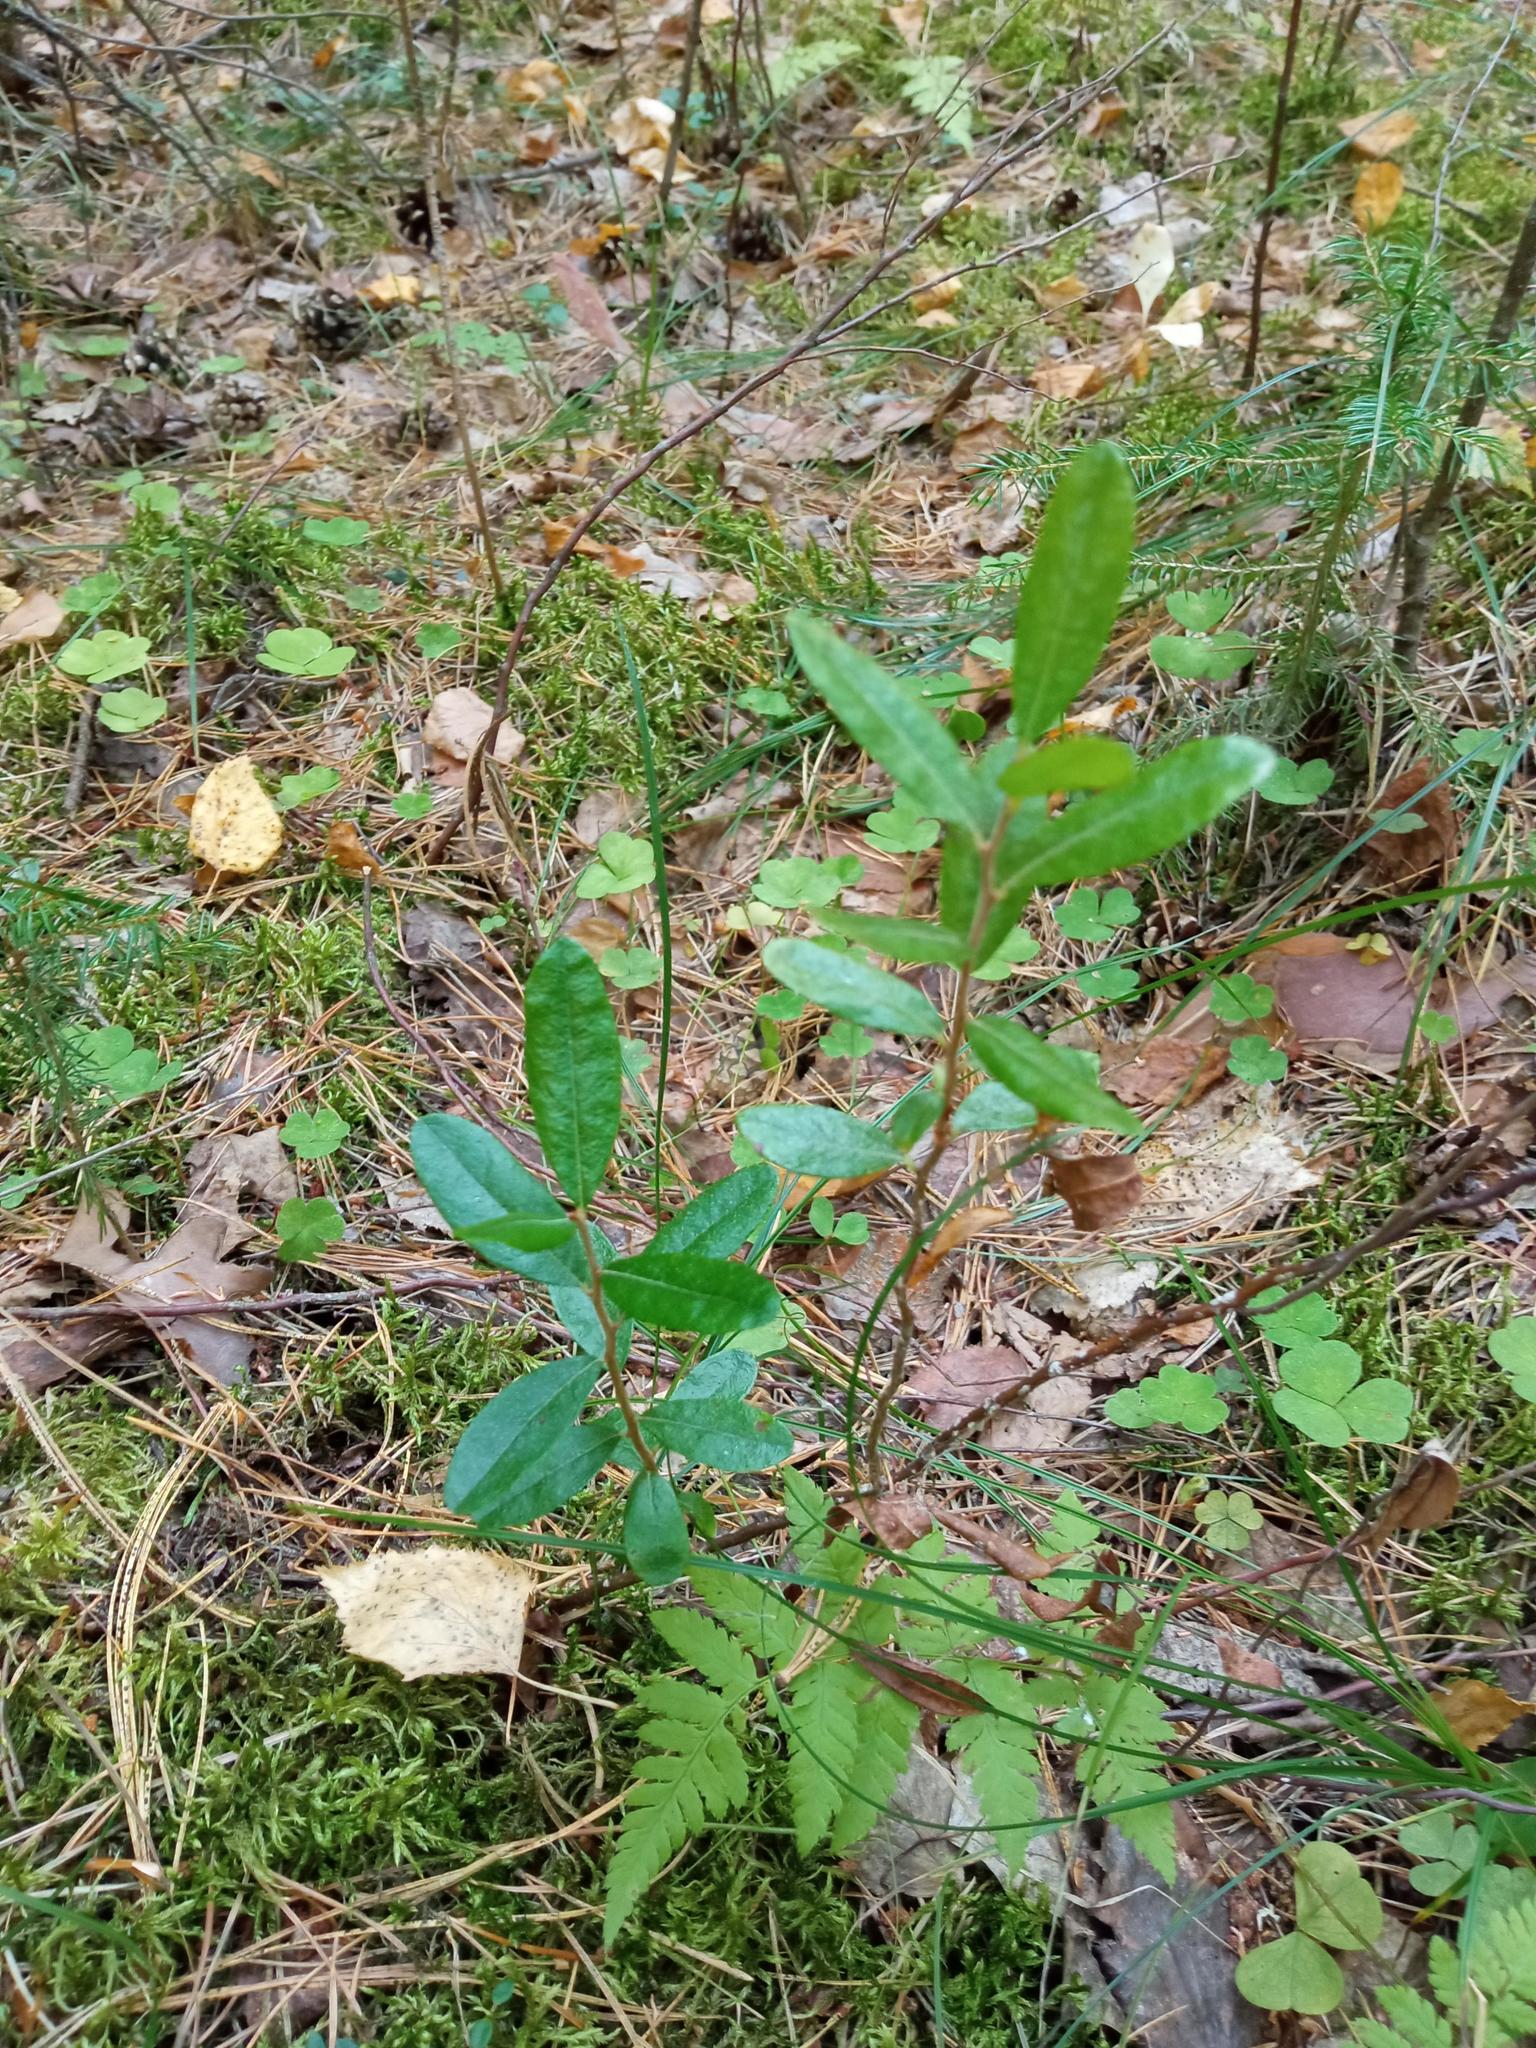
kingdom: Plantae
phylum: Tracheophyta
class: Magnoliopsida
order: Ericales
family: Ericaceae
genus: Chamaedaphne
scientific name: Chamaedaphne calyculata
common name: Leatherleaf
